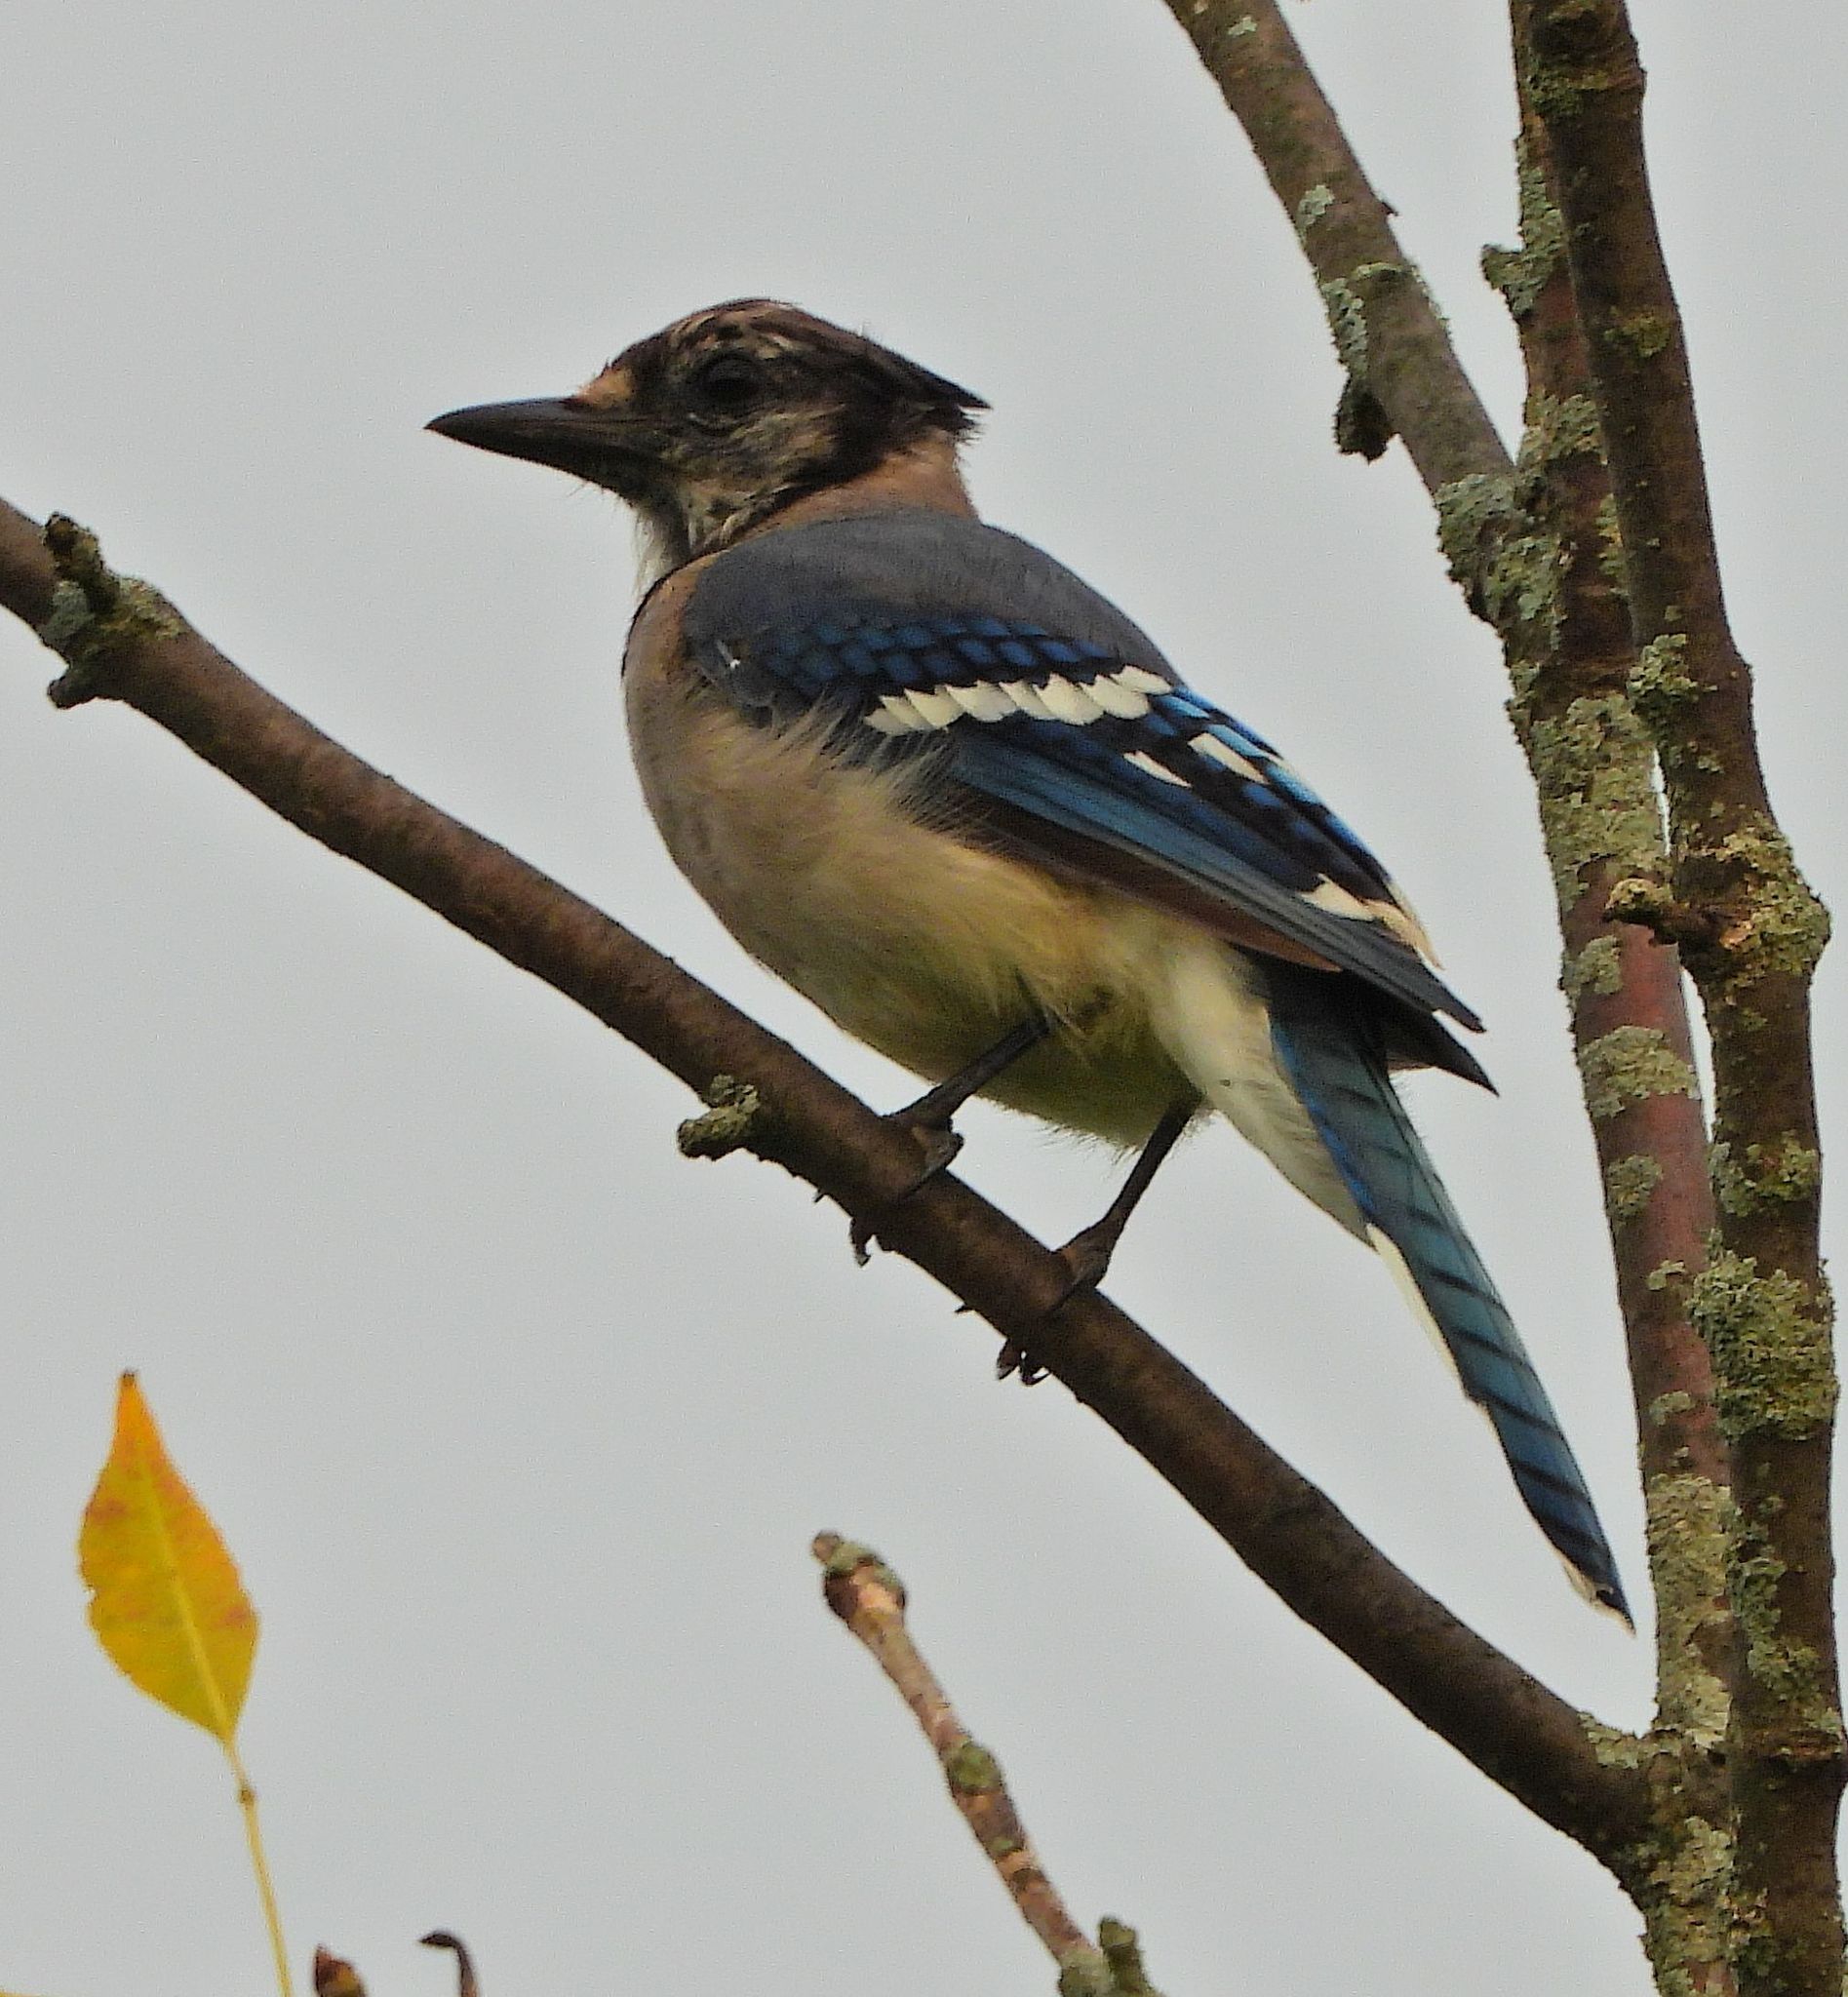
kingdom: Animalia
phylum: Chordata
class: Aves
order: Passeriformes
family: Corvidae
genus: Cyanocitta
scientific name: Cyanocitta cristata
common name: Blue jay
